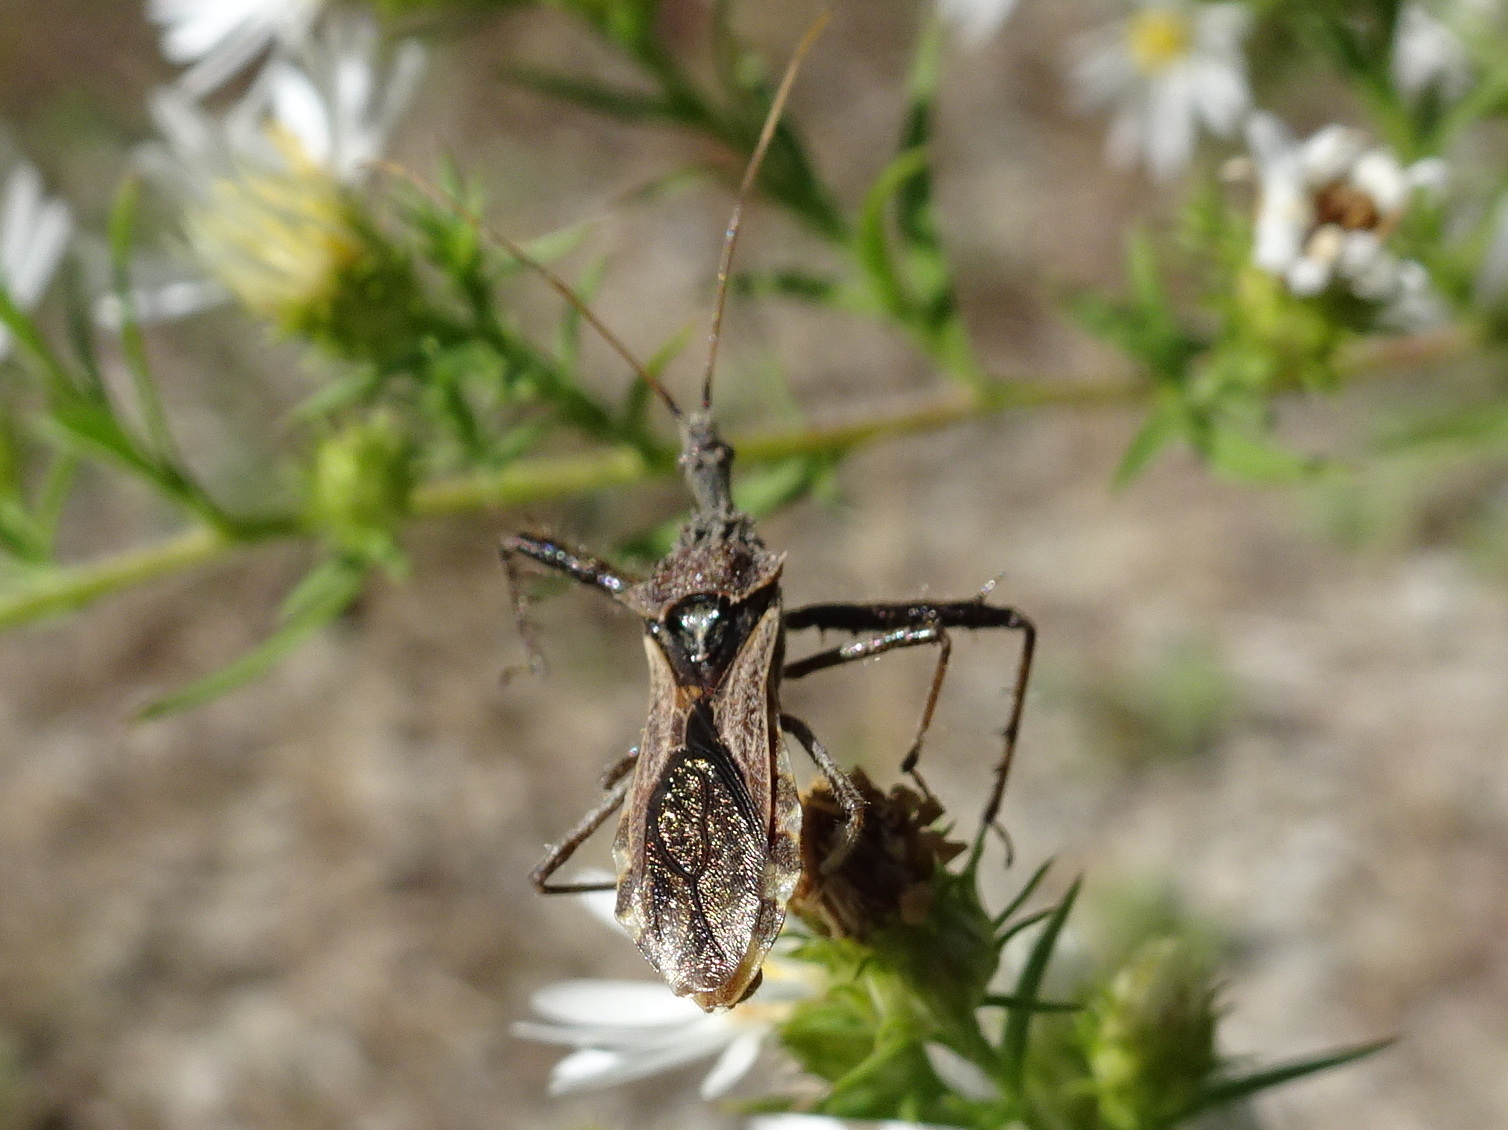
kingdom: Animalia
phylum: Arthropoda
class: Insecta
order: Hemiptera
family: Reduviidae
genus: Sinea
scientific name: Sinea diadema
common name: Spined assassin bug
